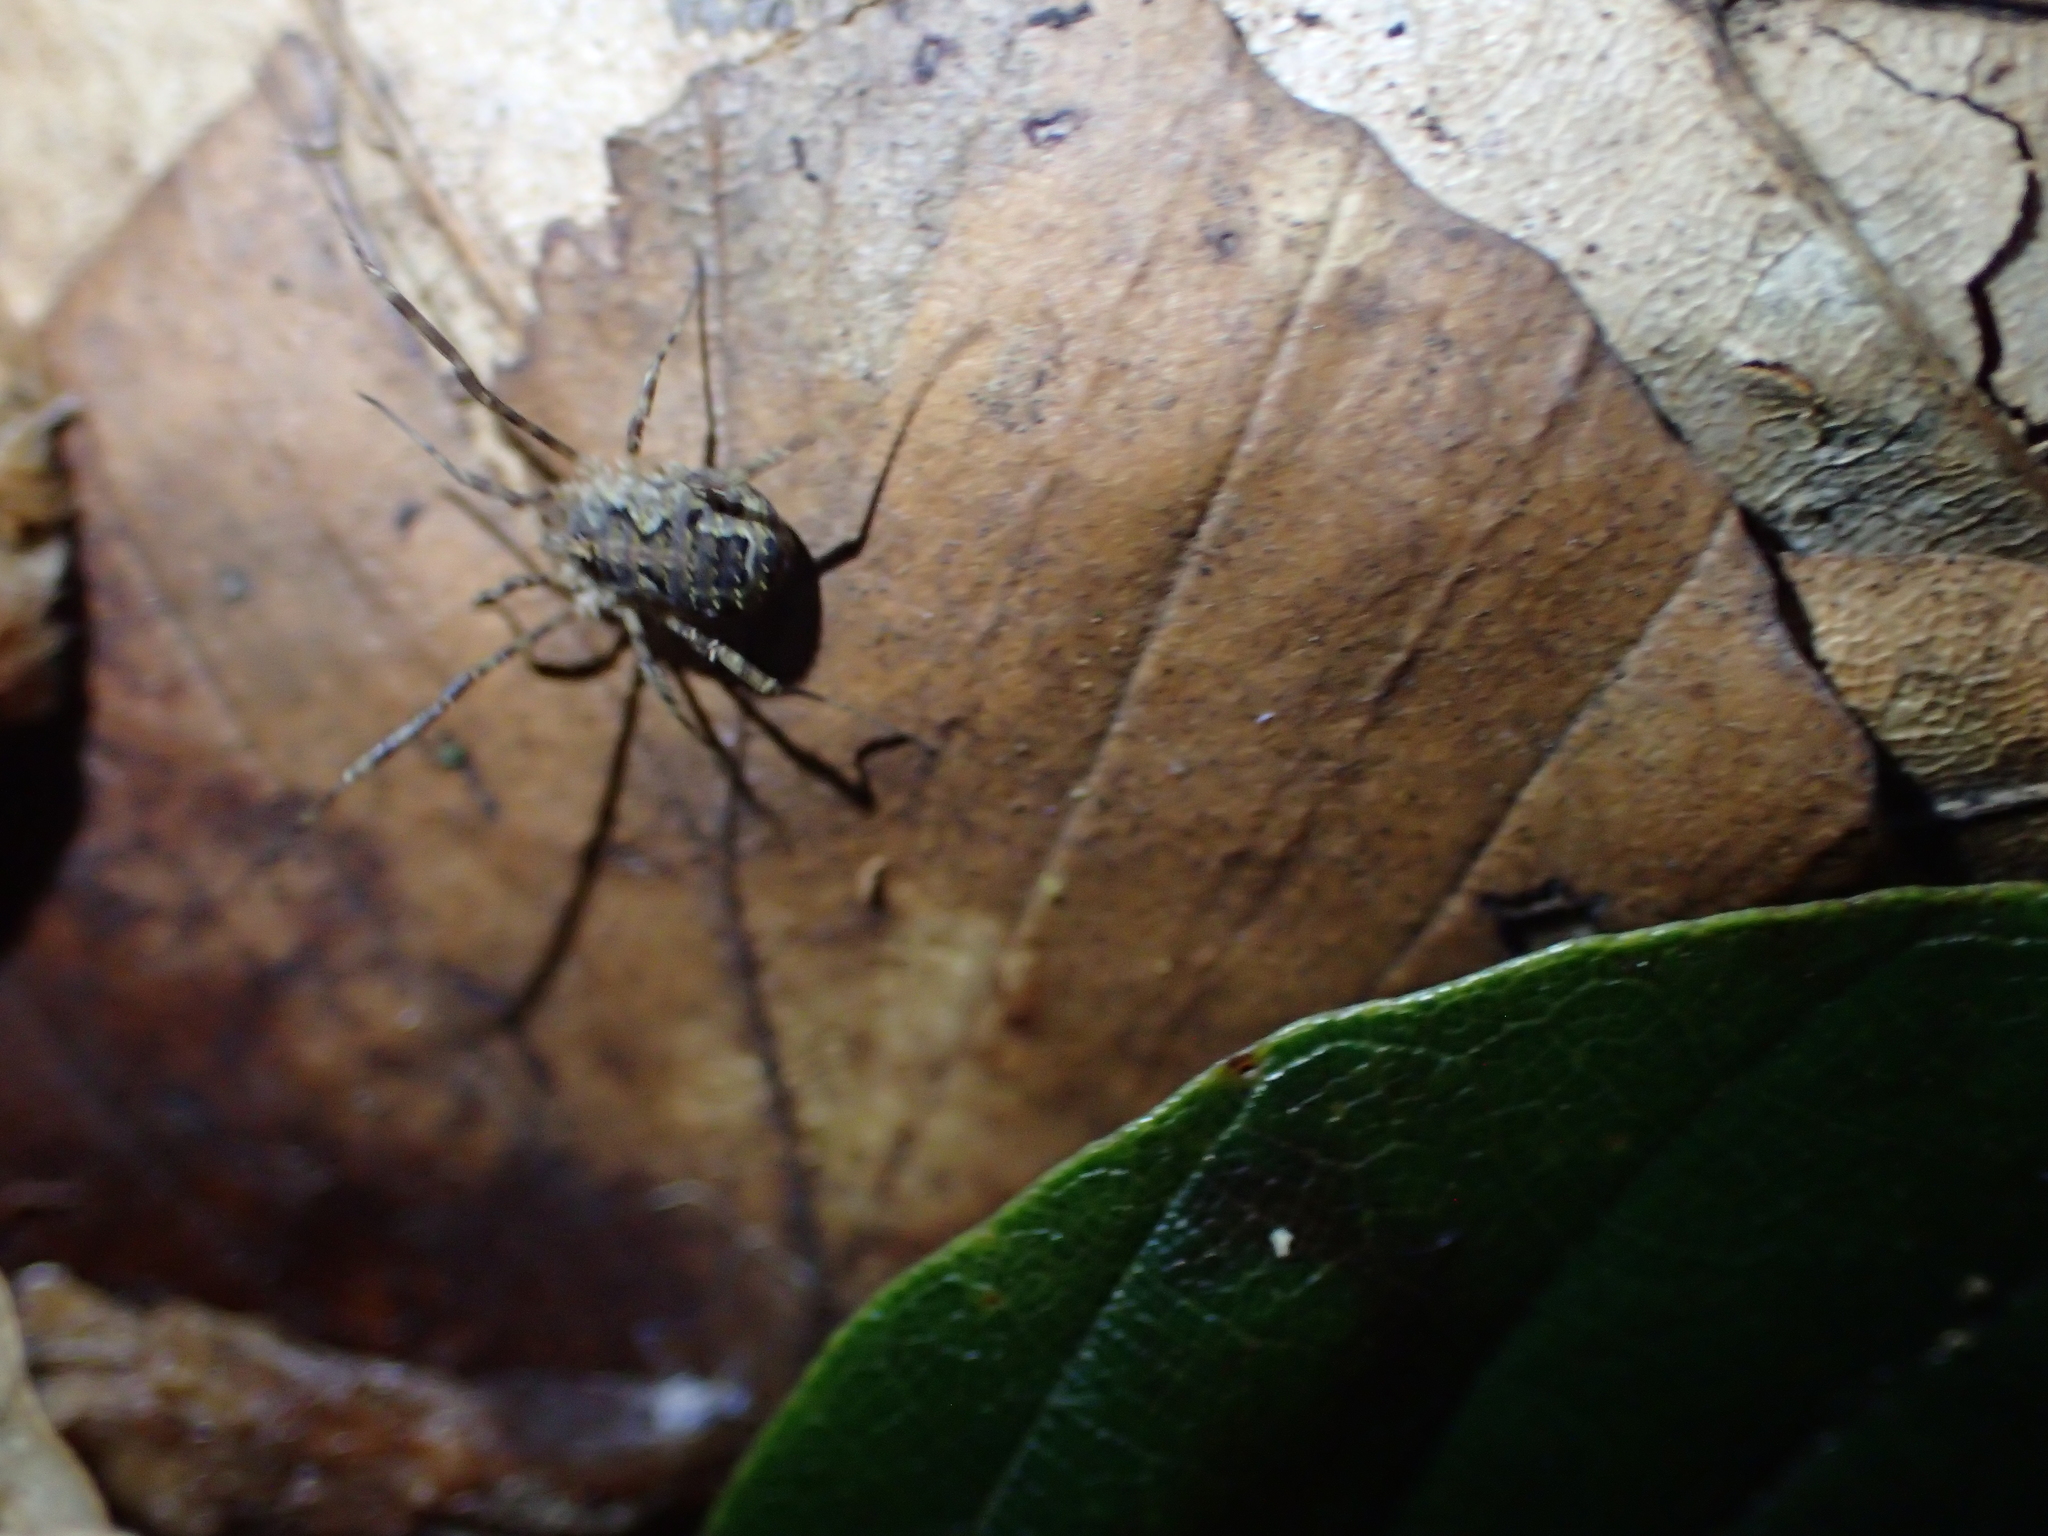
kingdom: Animalia
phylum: Arthropoda
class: Arachnida
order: Opiliones
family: Phalangiidae
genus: Lacinius
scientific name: Lacinius dentiger
